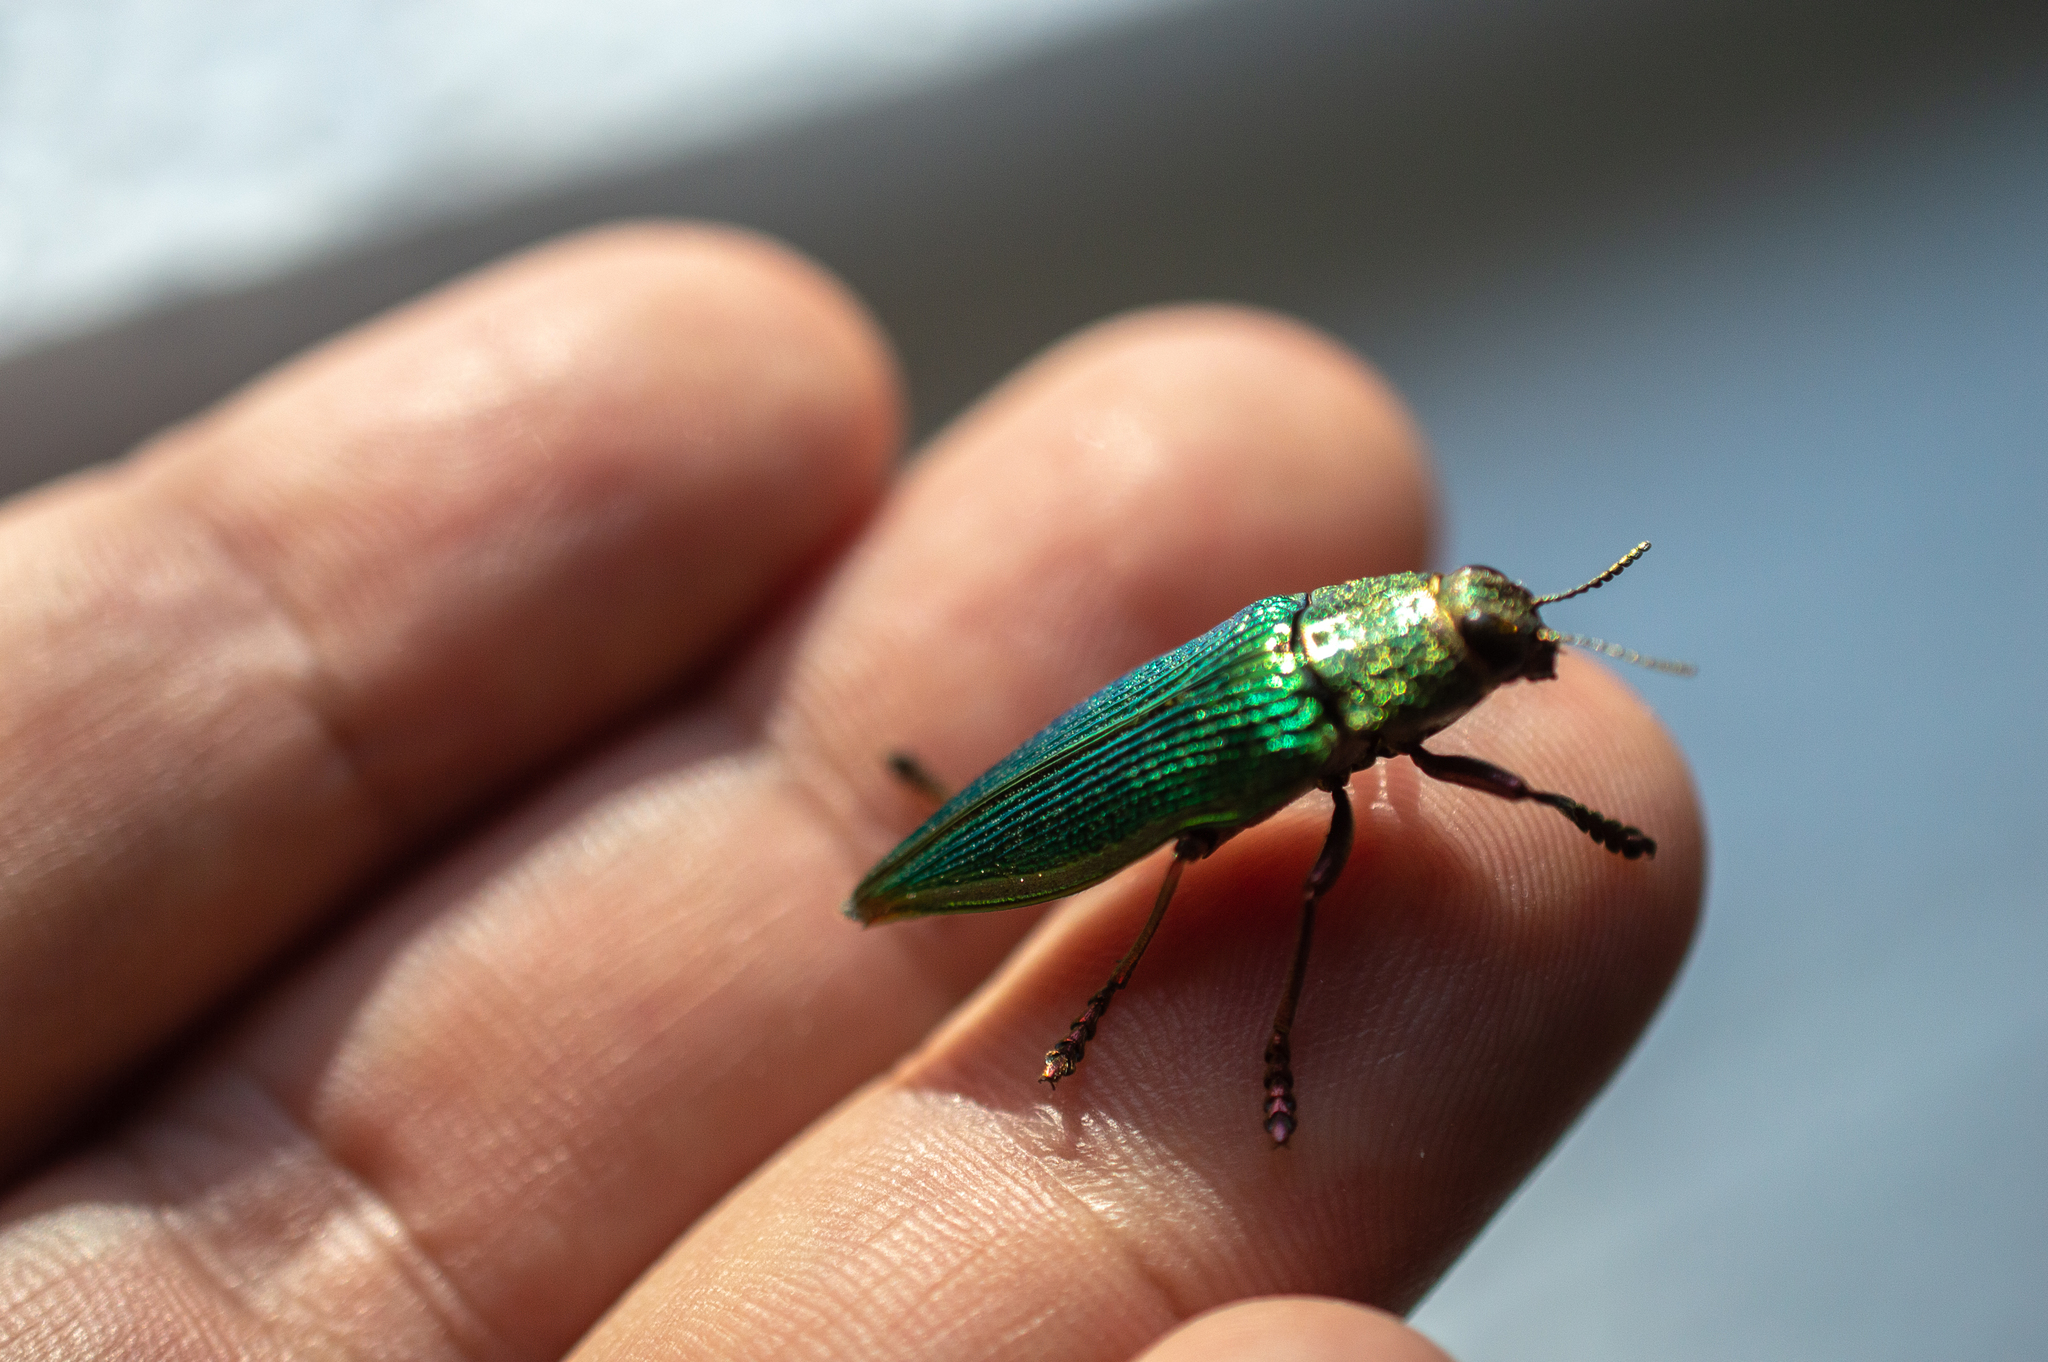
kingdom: Animalia
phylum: Arthropoda
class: Insecta
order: Coleoptera
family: Buprestidae
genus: Psiloptera
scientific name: Psiloptera attenuata
